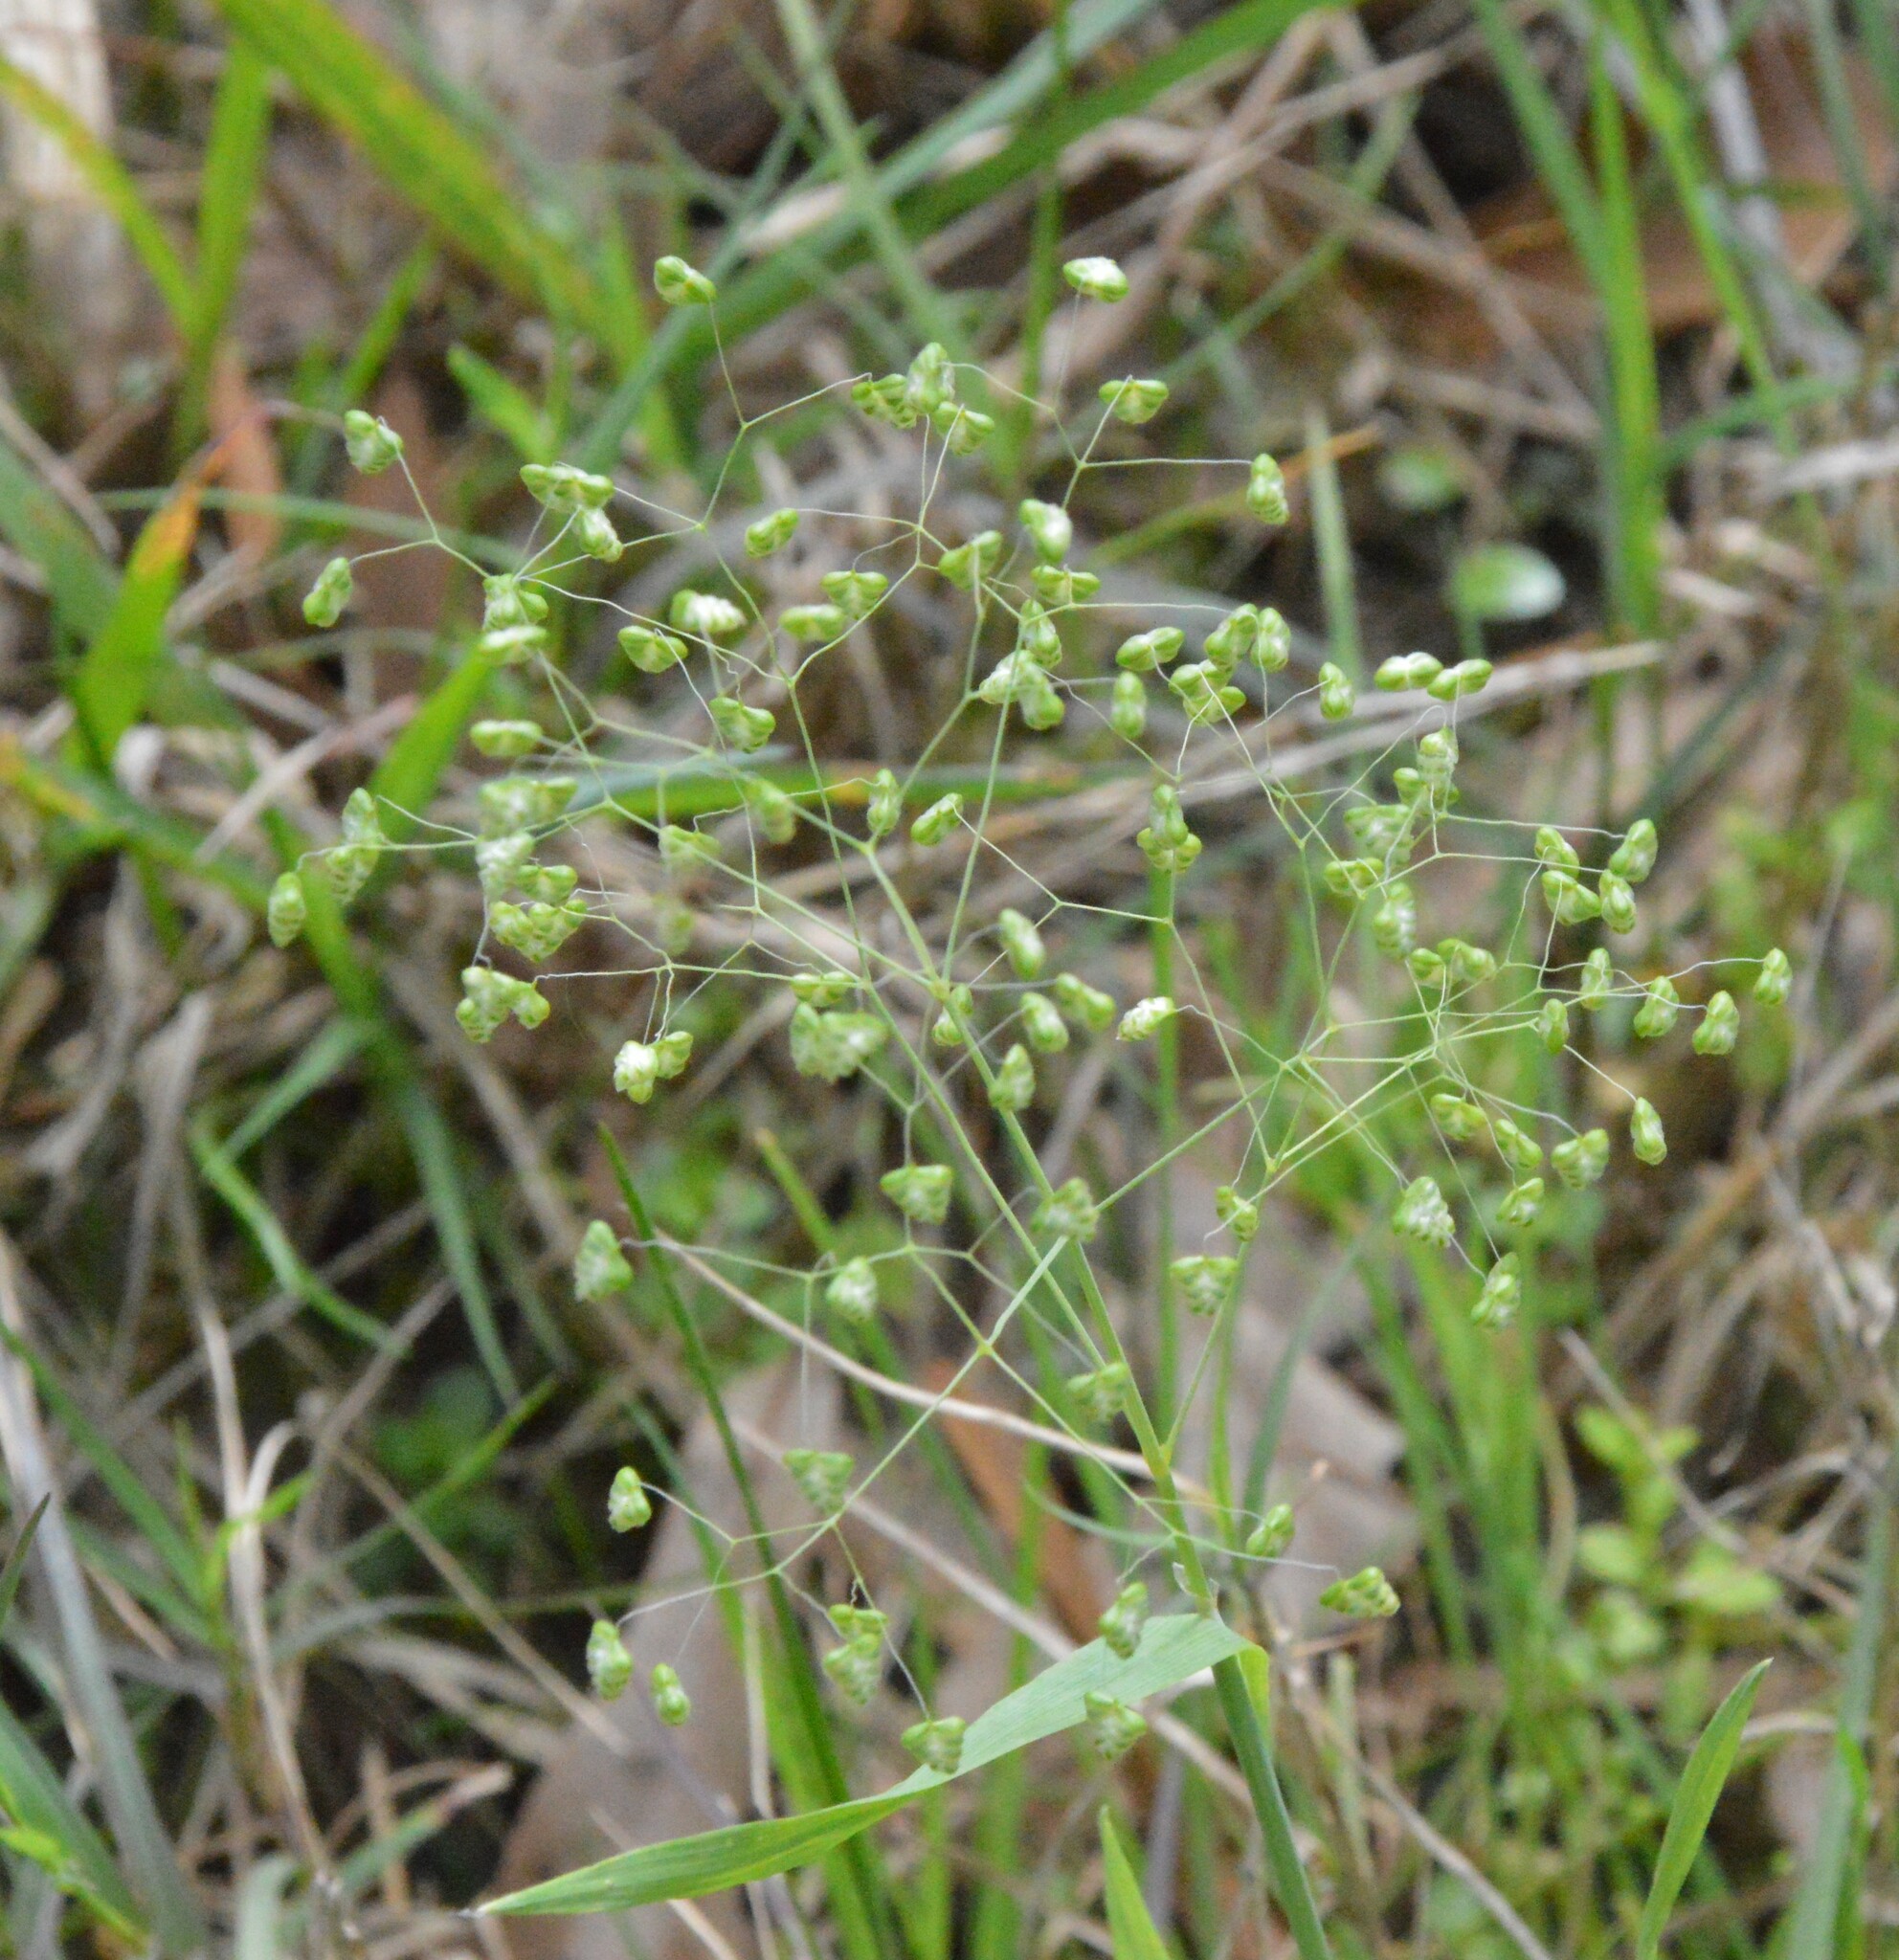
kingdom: Plantae
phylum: Tracheophyta
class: Liliopsida
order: Poales
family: Poaceae
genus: Briza
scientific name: Briza minor
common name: Lesser quaking-grass
